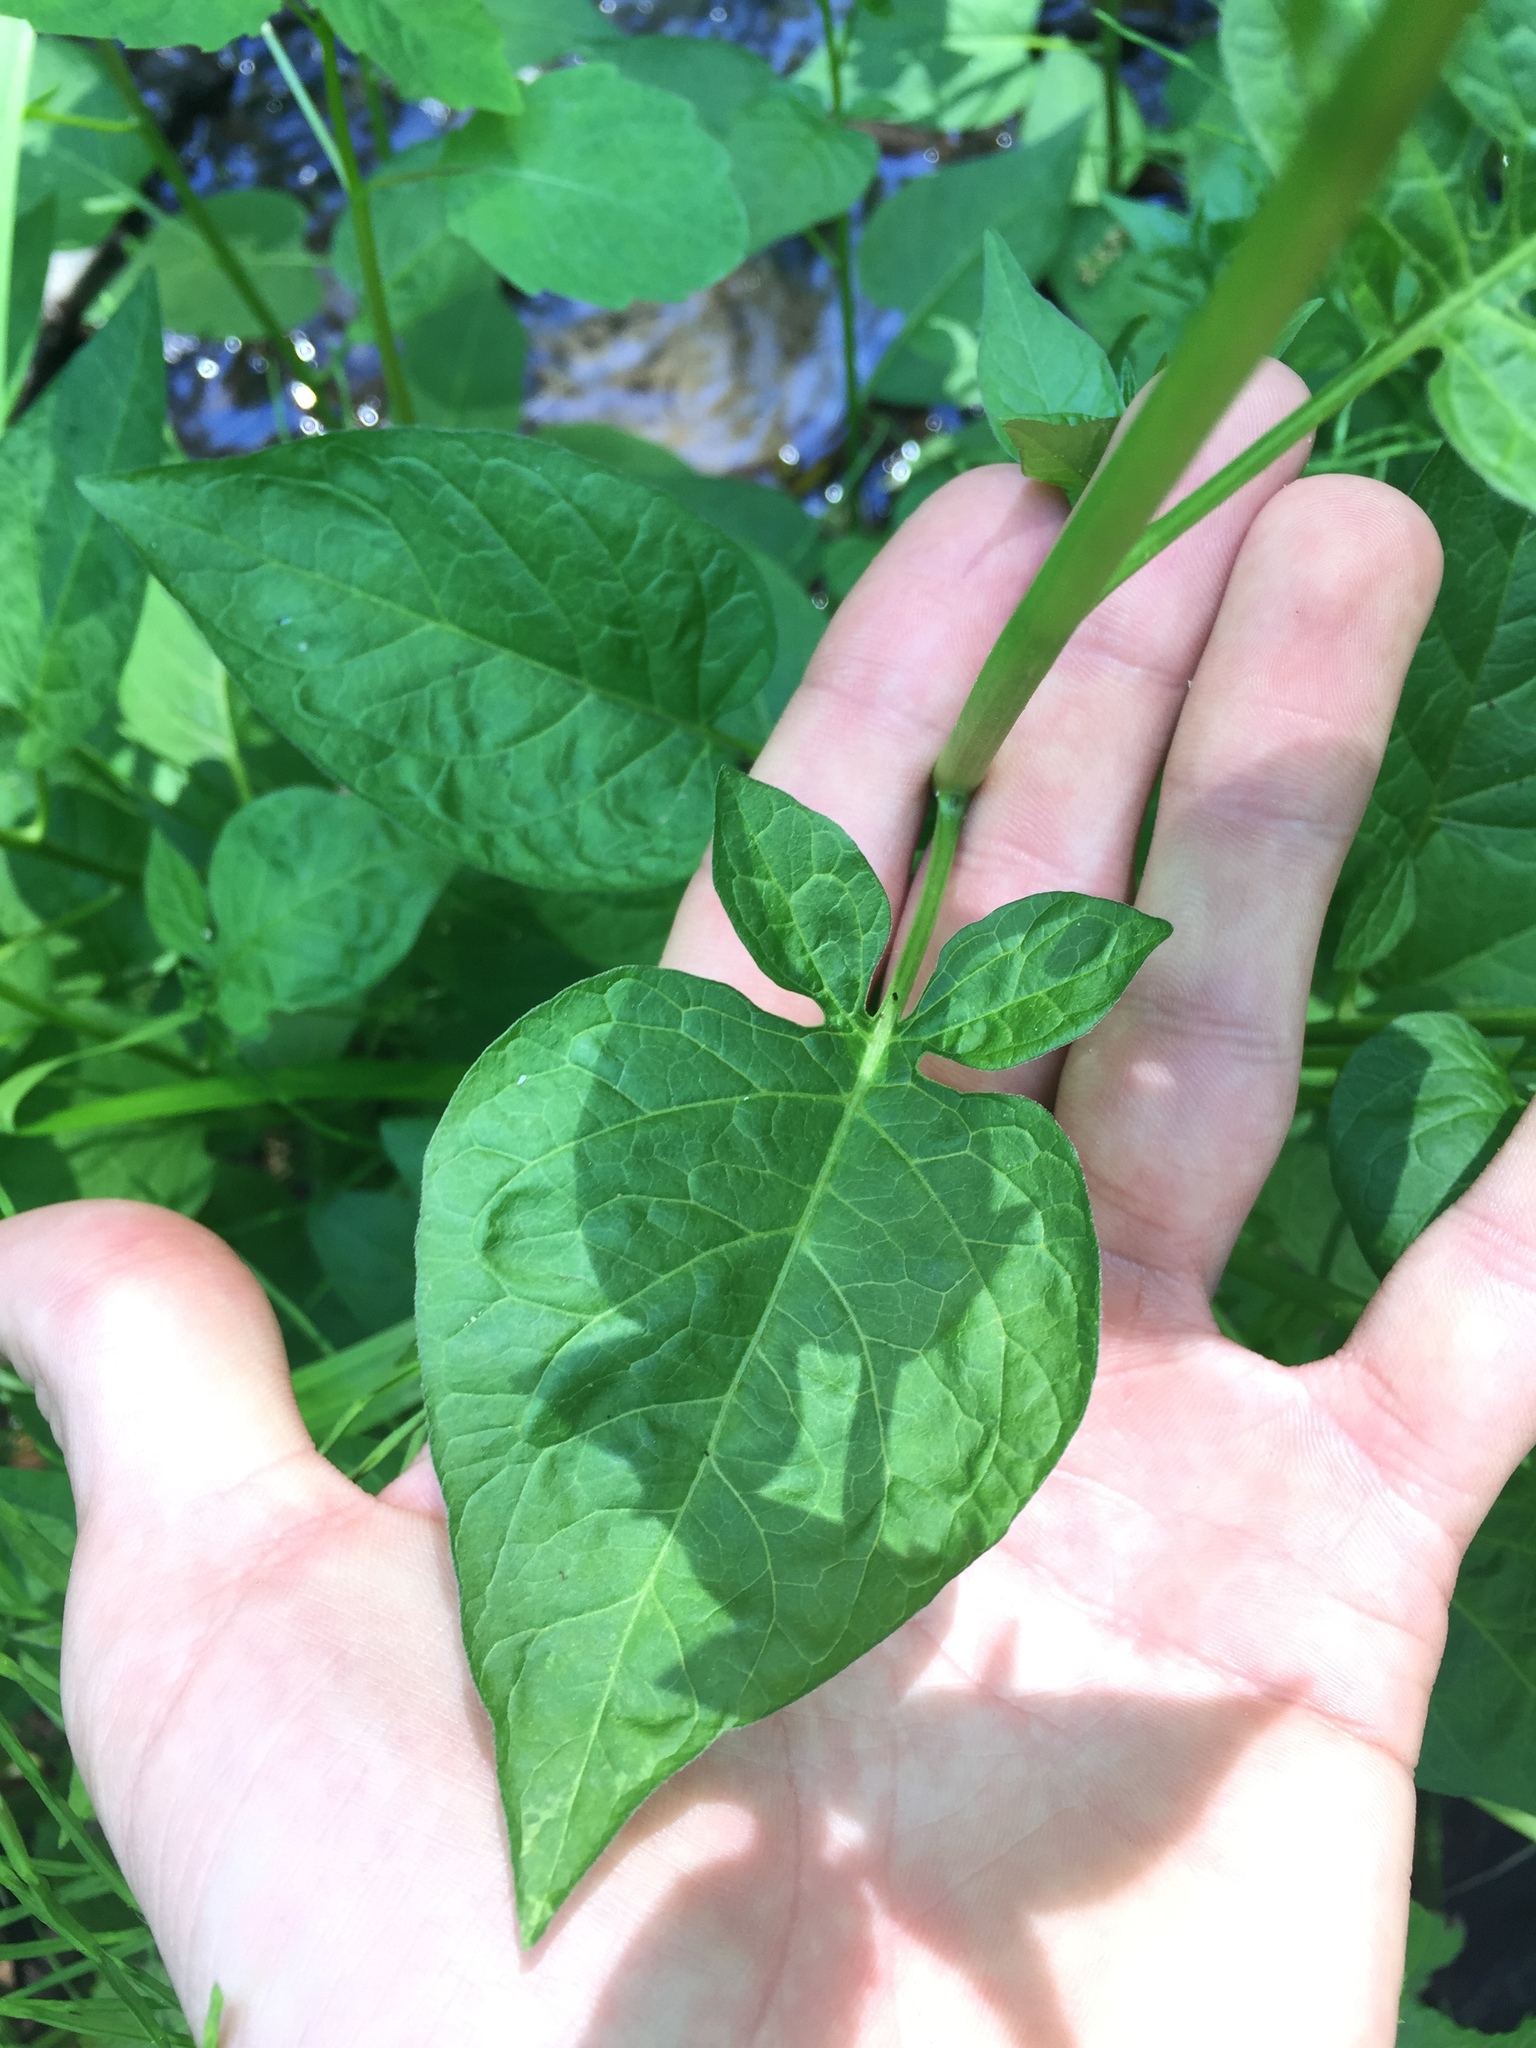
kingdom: Plantae
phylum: Tracheophyta
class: Magnoliopsida
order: Solanales
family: Solanaceae
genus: Solanum
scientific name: Solanum dulcamara
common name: Climbing nightshade
